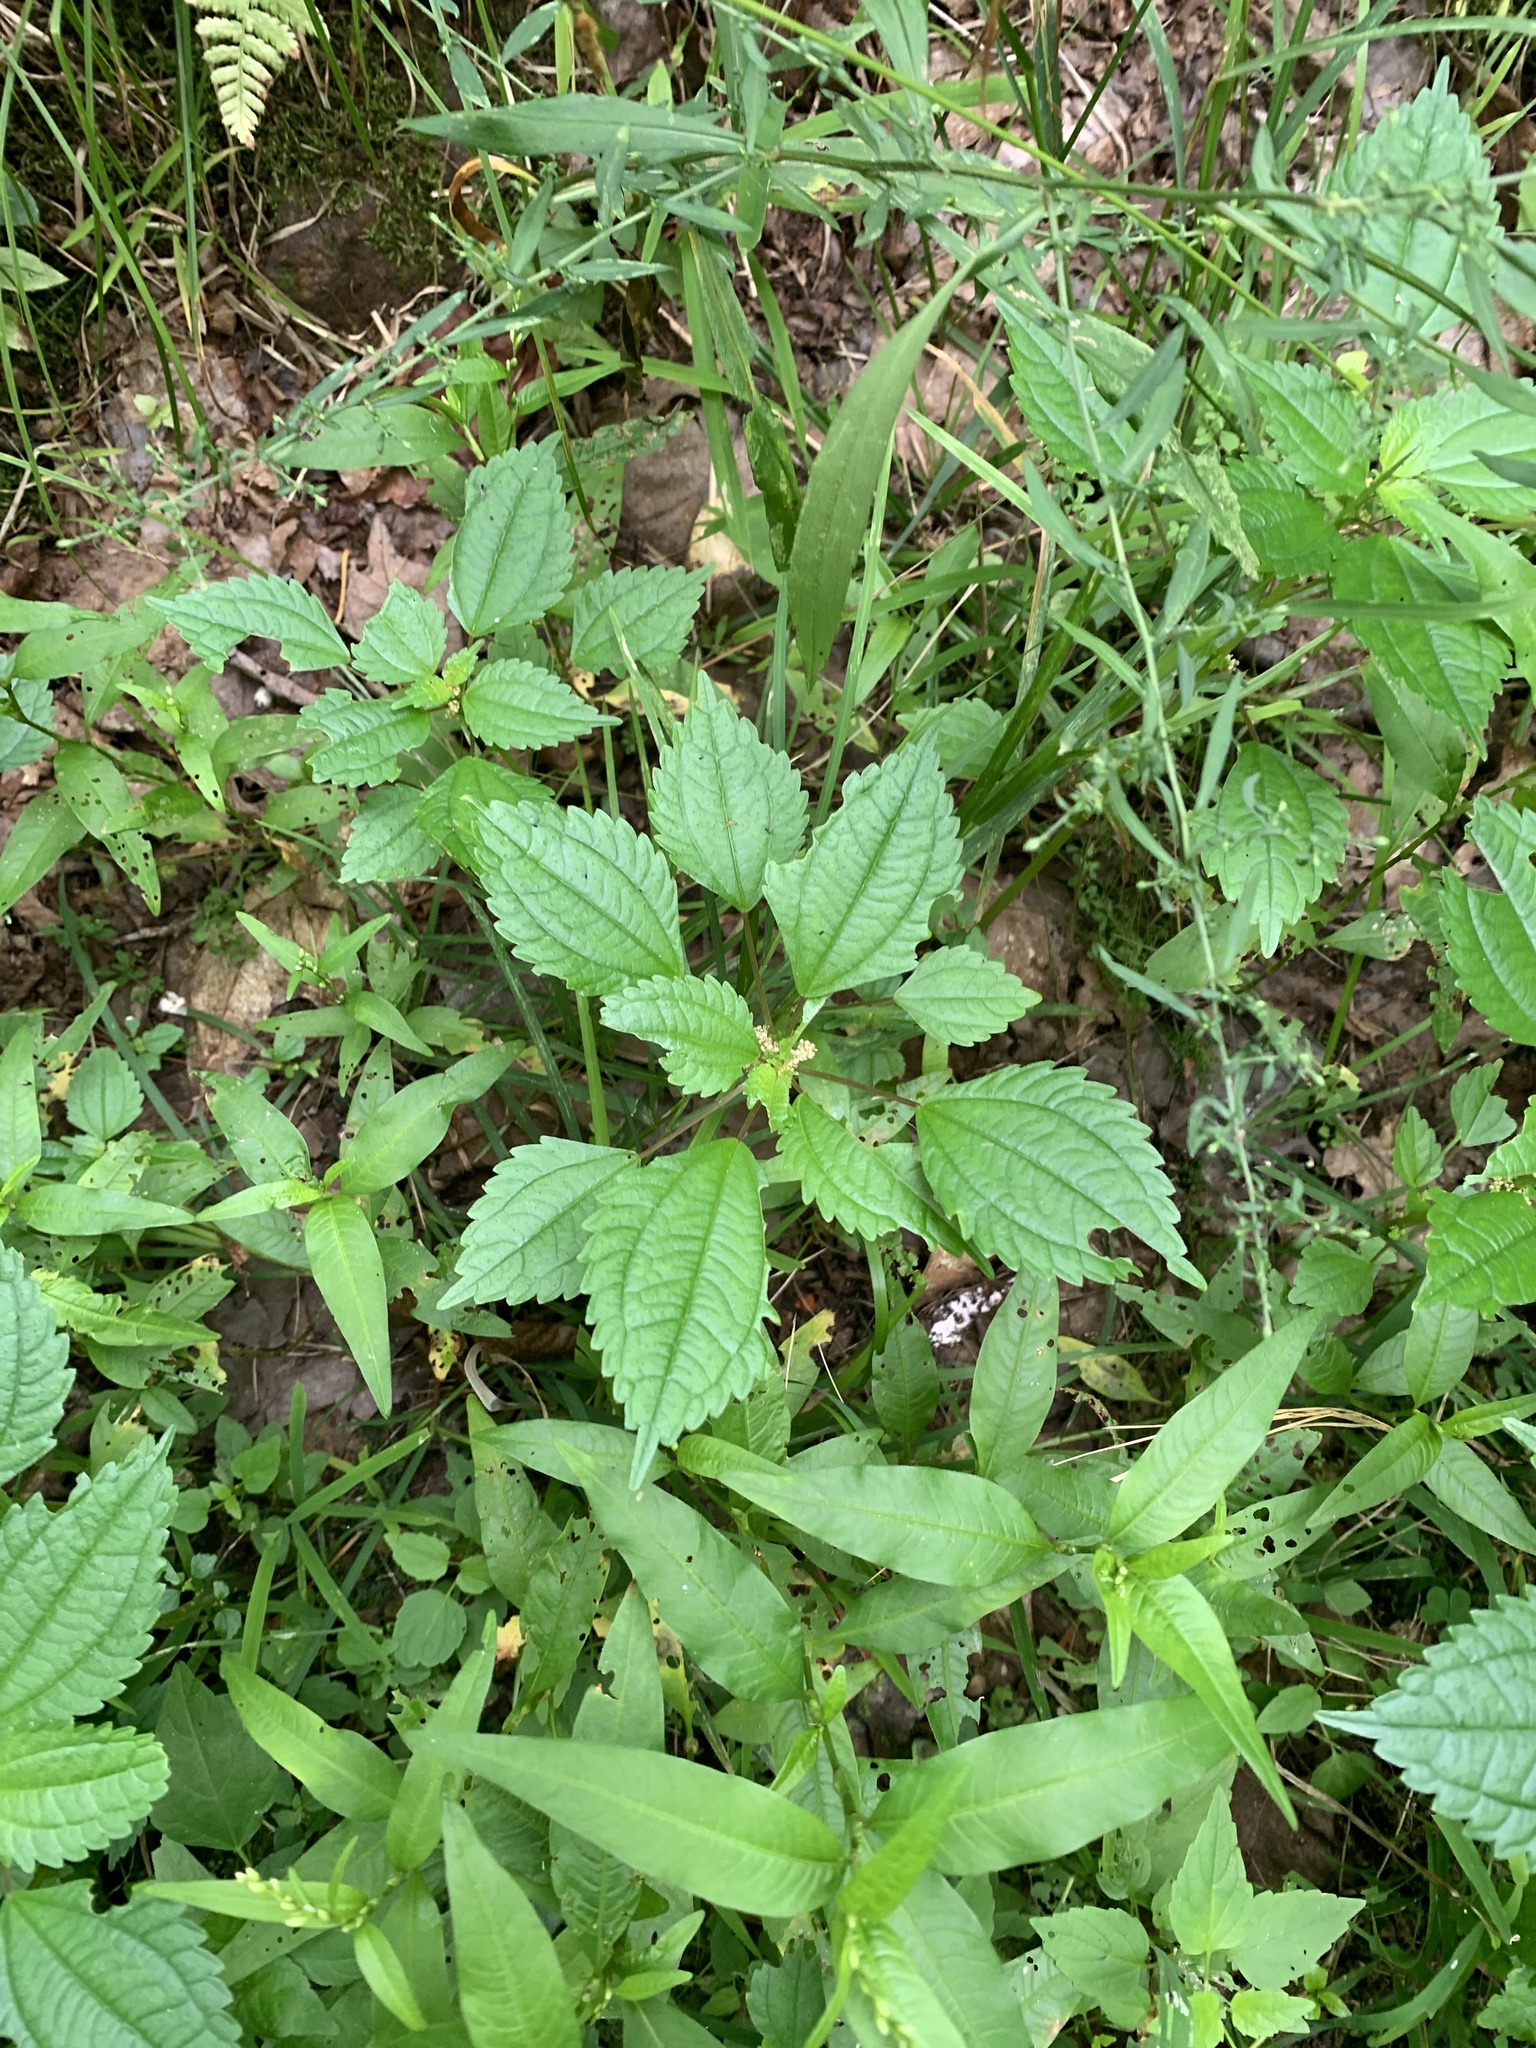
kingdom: Plantae
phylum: Tracheophyta
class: Magnoliopsida
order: Rosales
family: Urticaceae
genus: Pilea
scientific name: Pilea pumila
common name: Clearweed
